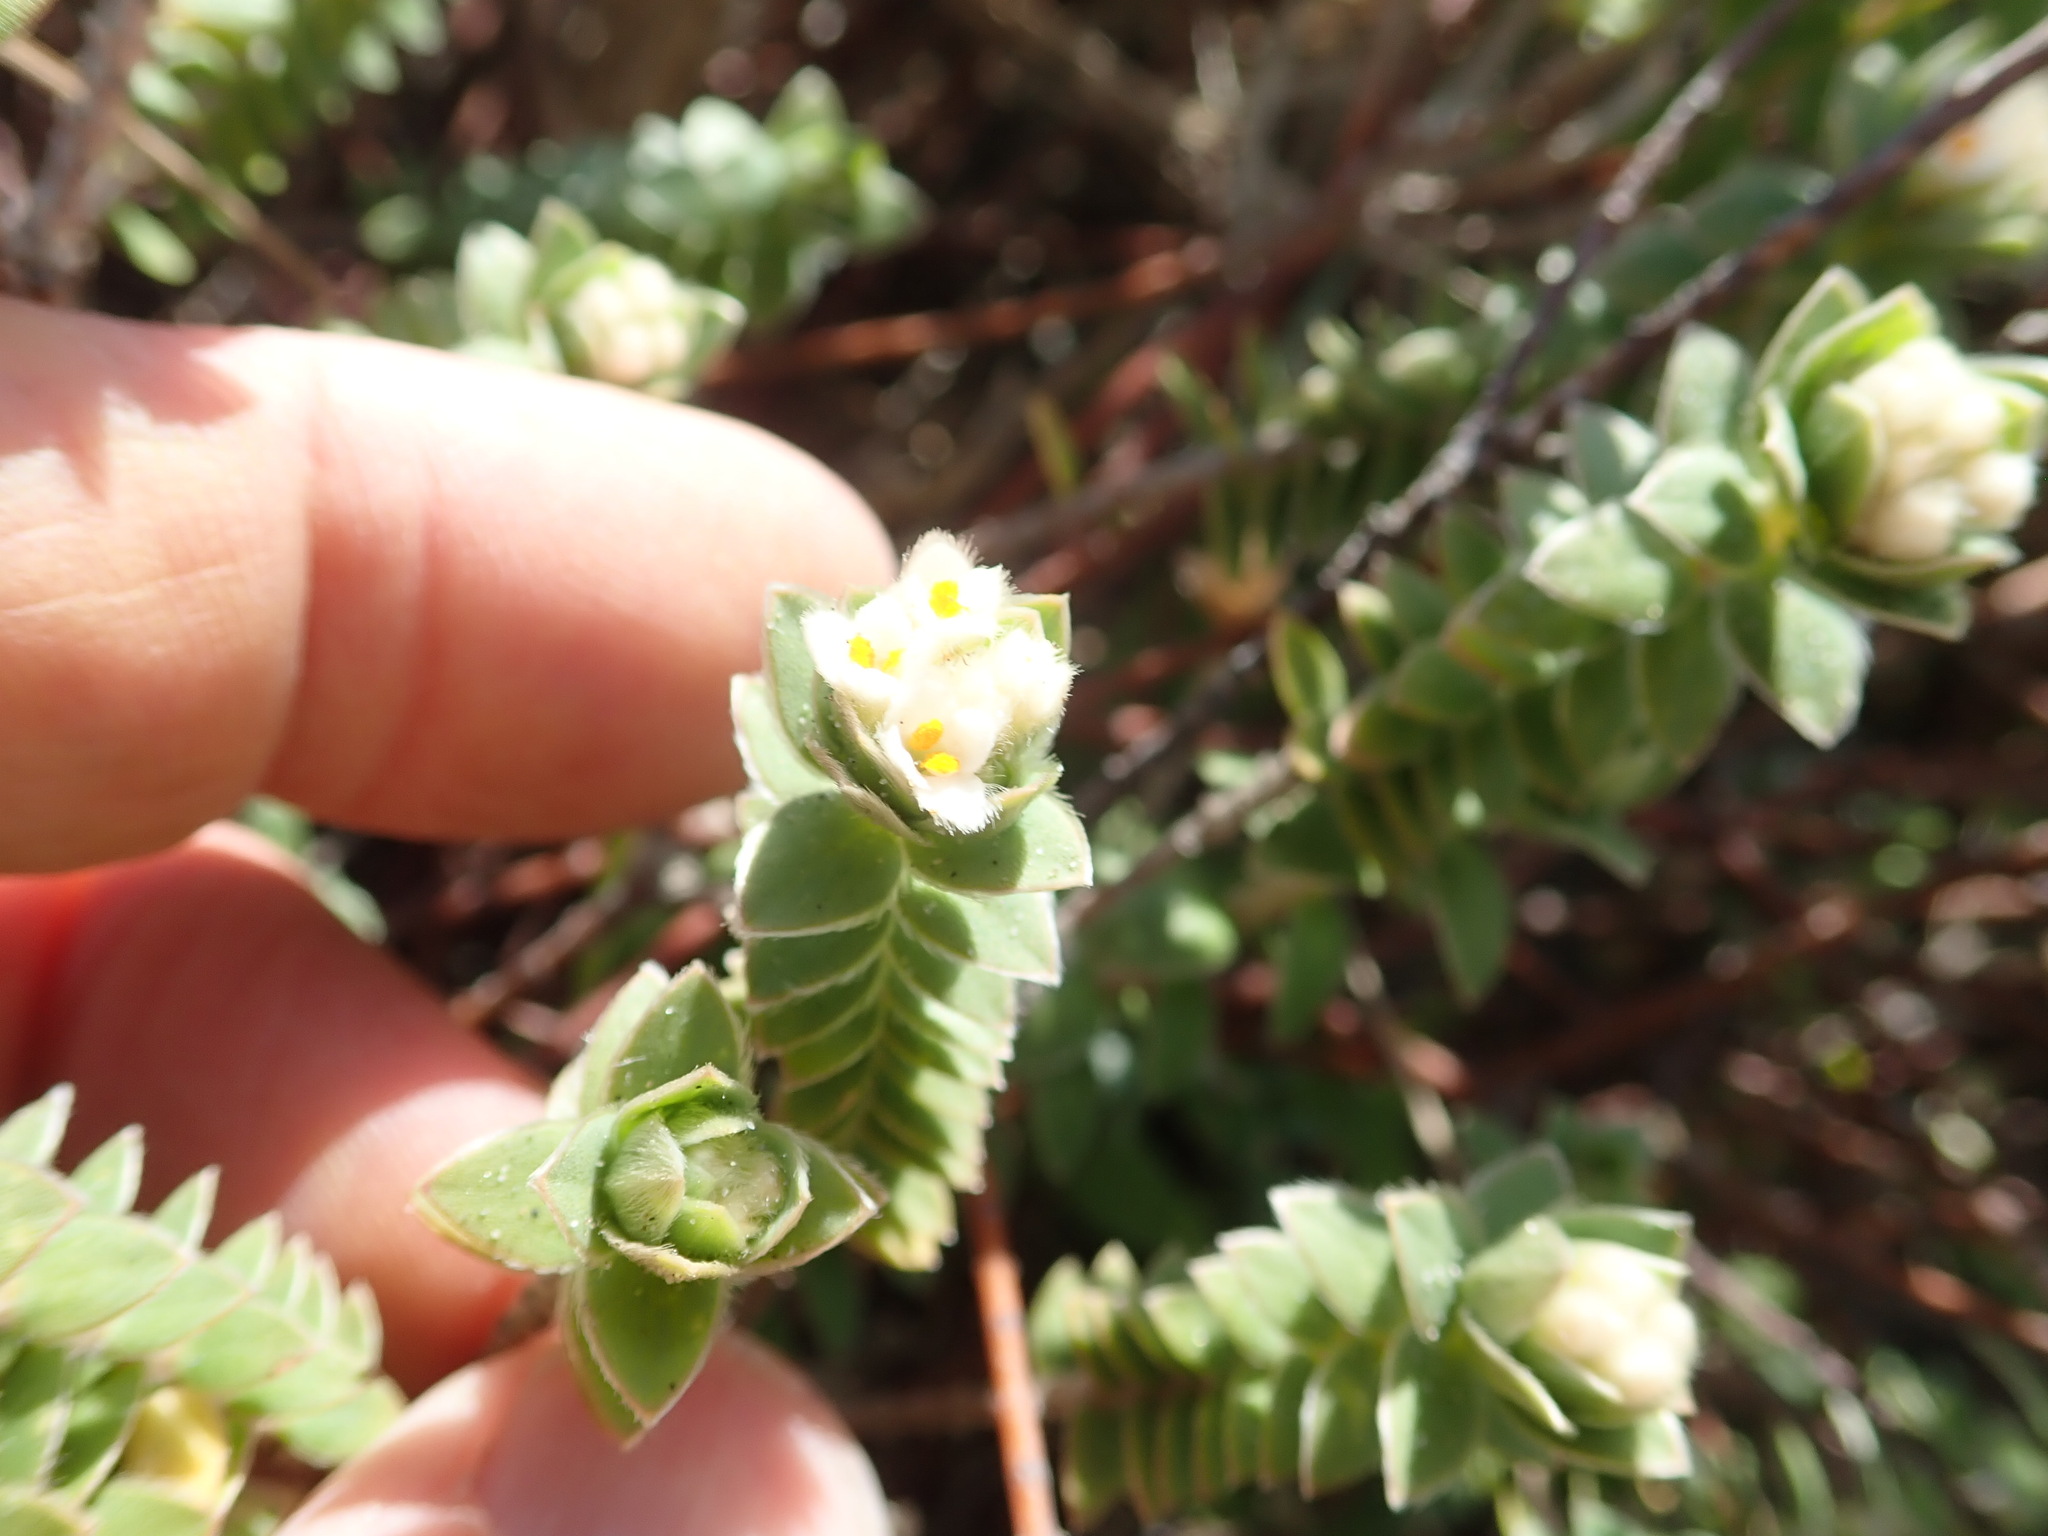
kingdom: Plantae
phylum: Tracheophyta
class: Magnoliopsida
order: Malvales
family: Thymelaeaceae
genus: Pimelea
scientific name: Pimelea villosa
